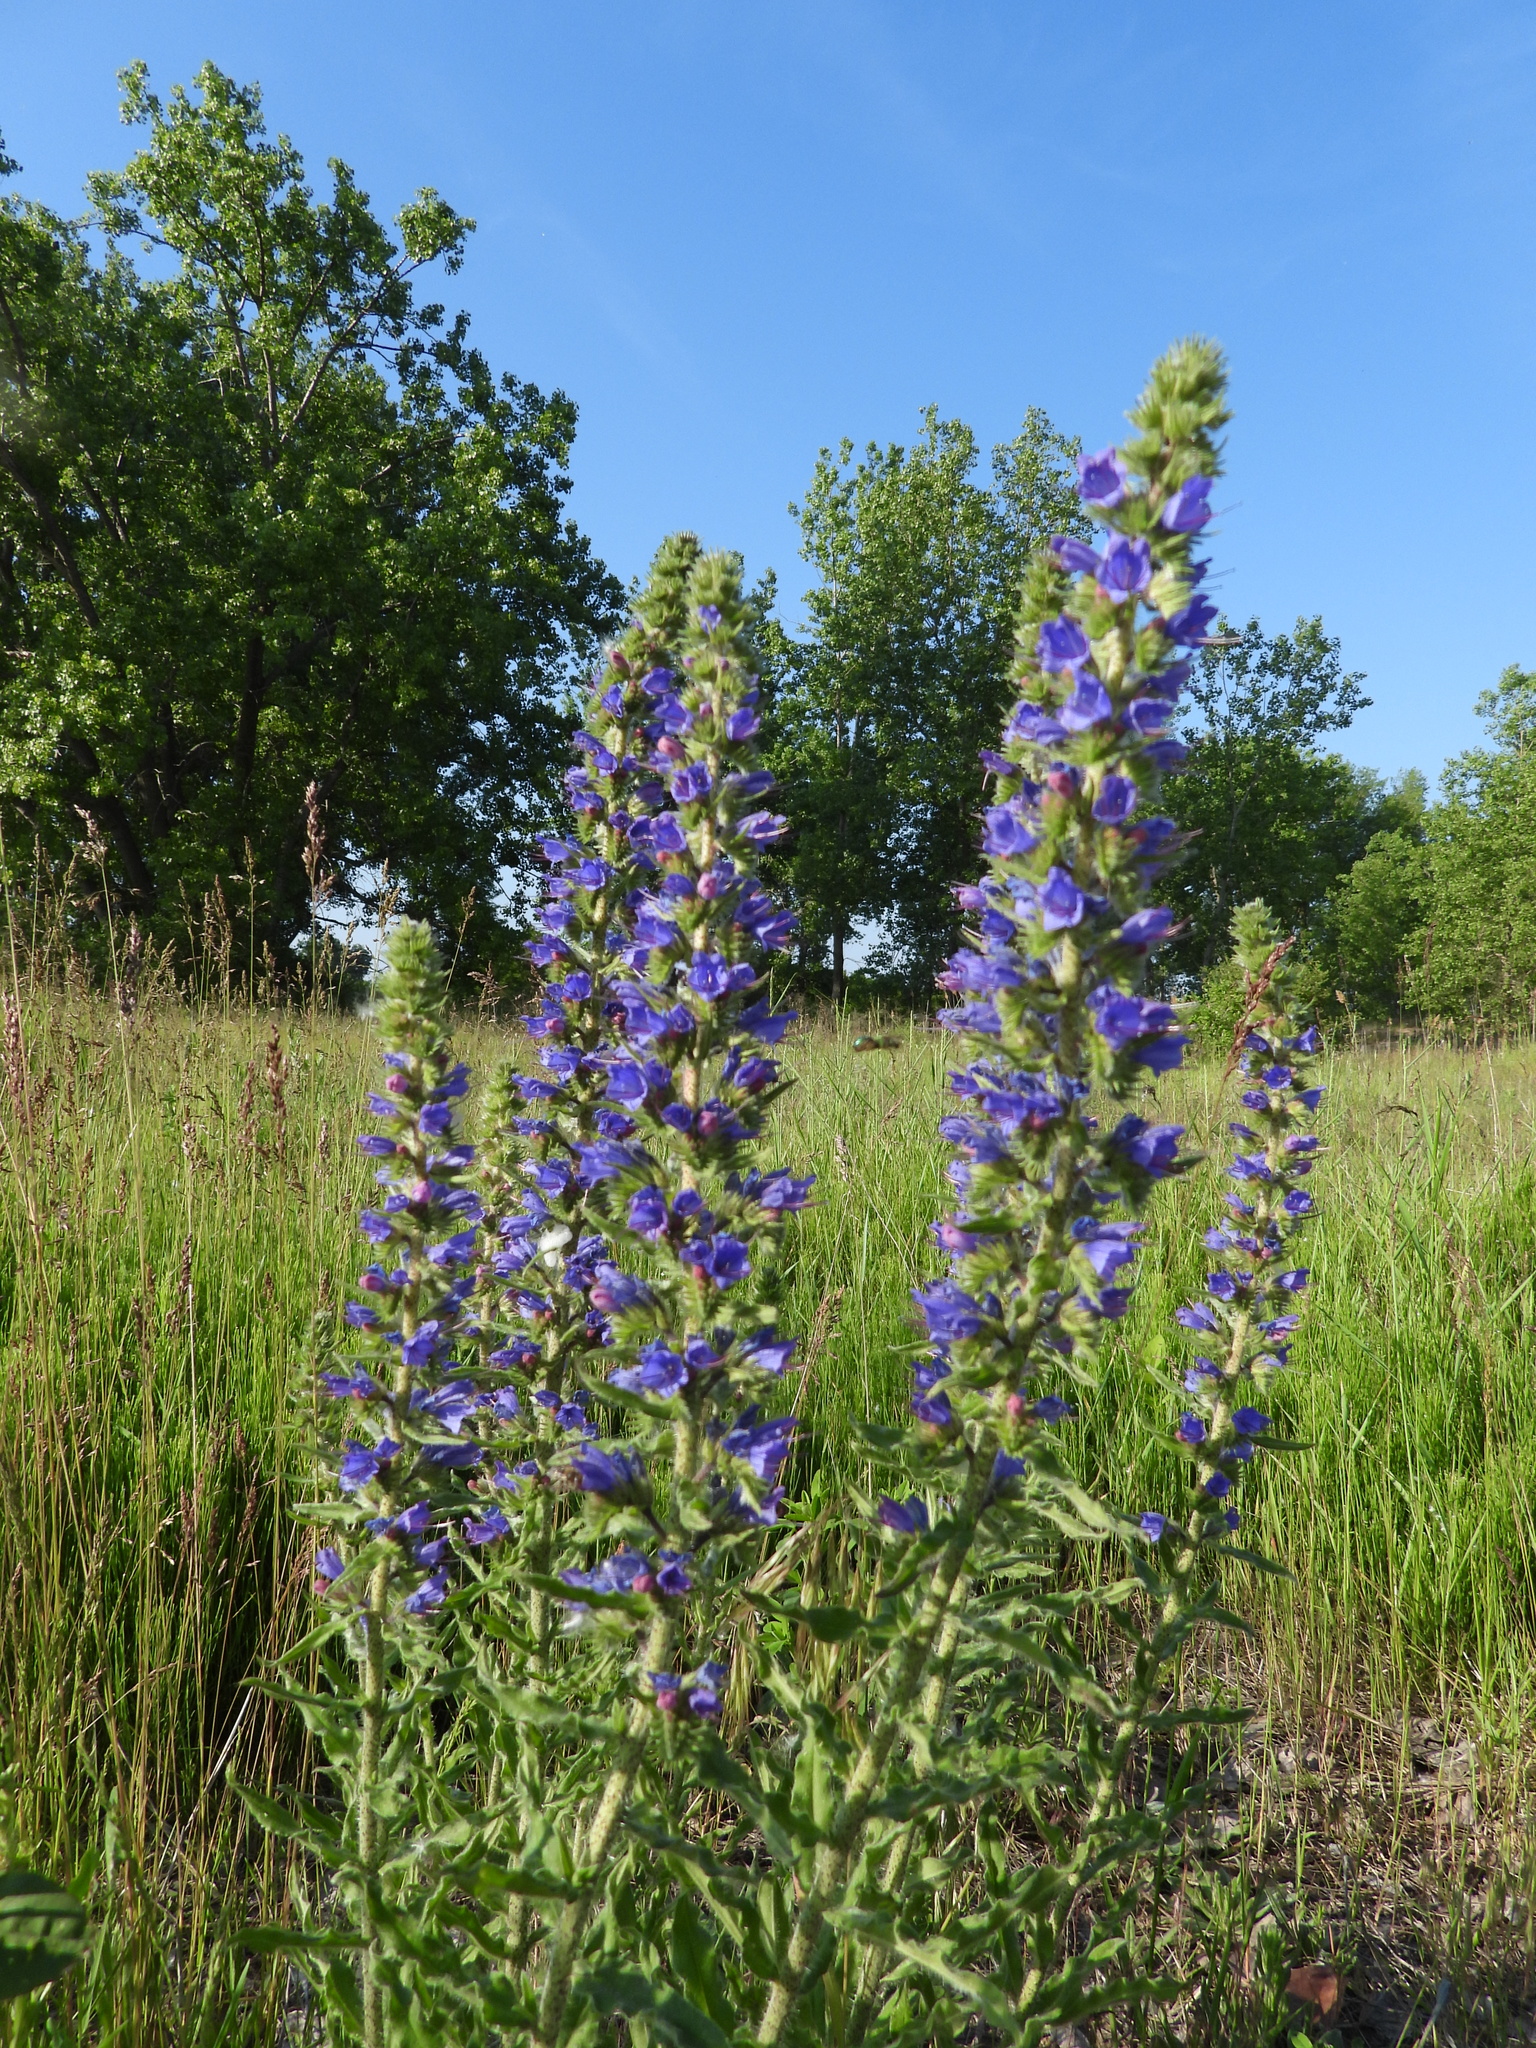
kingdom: Plantae
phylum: Tracheophyta
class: Magnoliopsida
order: Boraginales
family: Boraginaceae
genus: Echium
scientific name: Echium vulgare
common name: Common viper's bugloss
